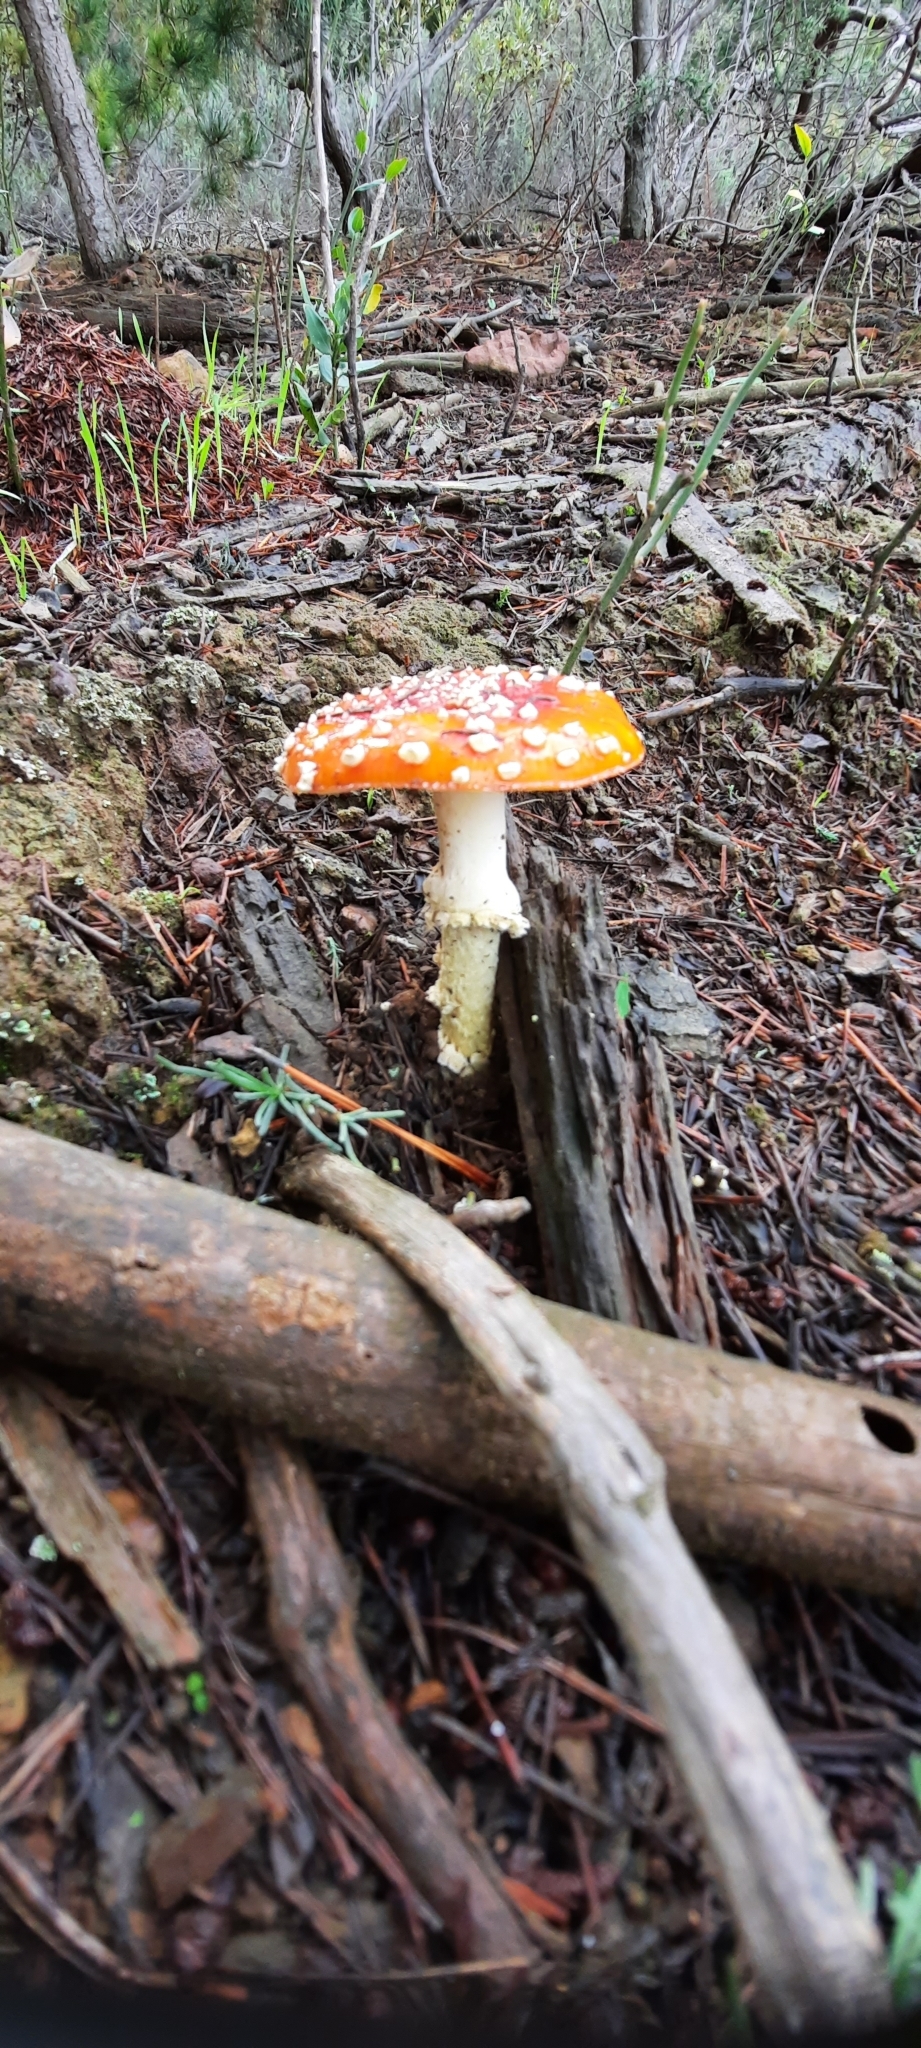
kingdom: Fungi
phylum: Basidiomycota
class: Agaricomycetes
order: Agaricales
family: Amanitaceae
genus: Amanita
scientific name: Amanita muscaria
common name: Fly agaric
